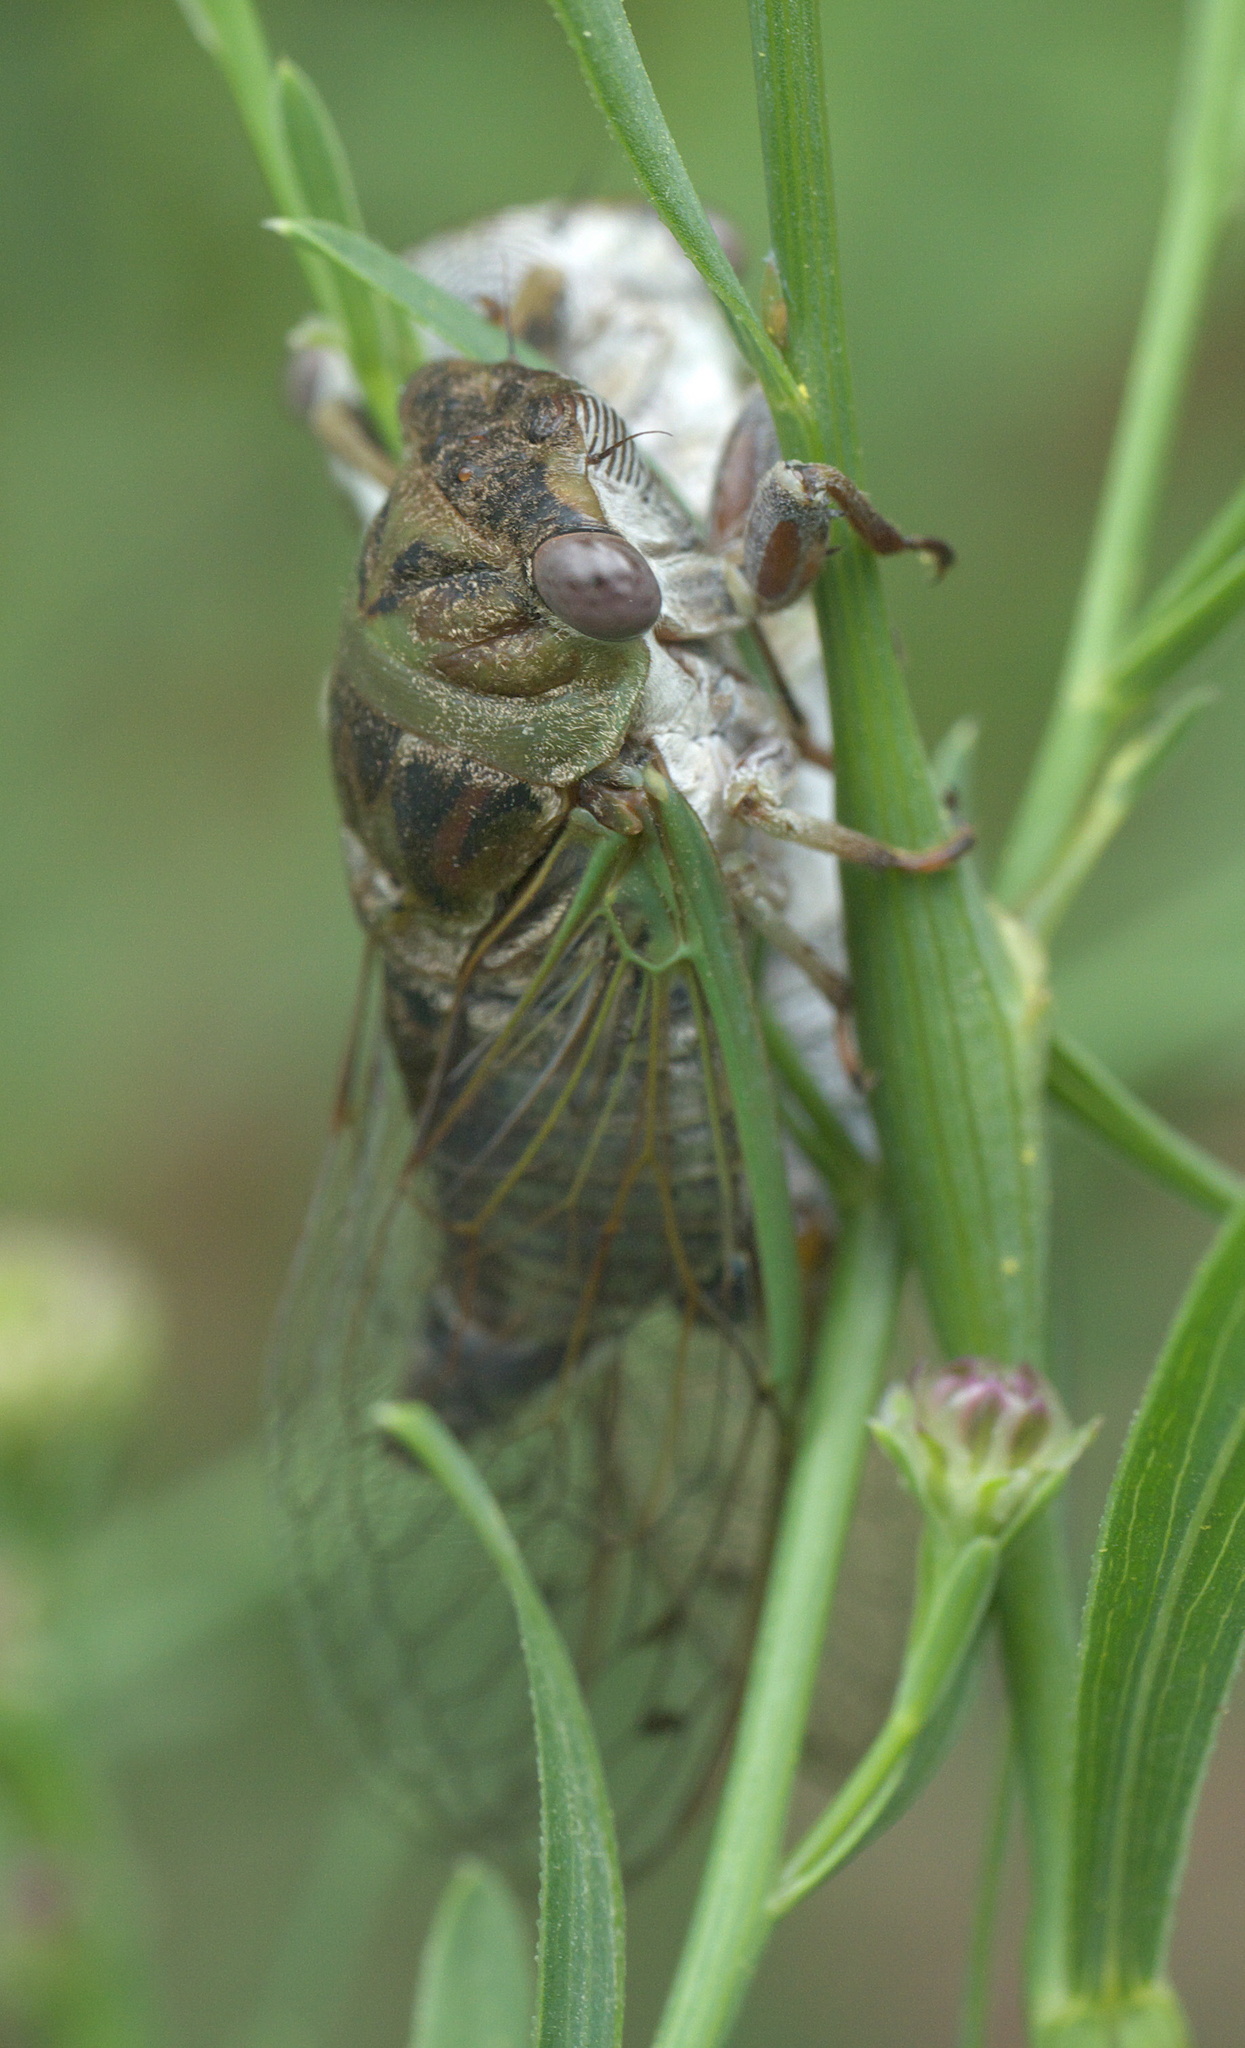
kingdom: Animalia
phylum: Arthropoda
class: Insecta
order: Hemiptera
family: Cicadidae
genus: Neotibicen
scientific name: Neotibicen aurifer
